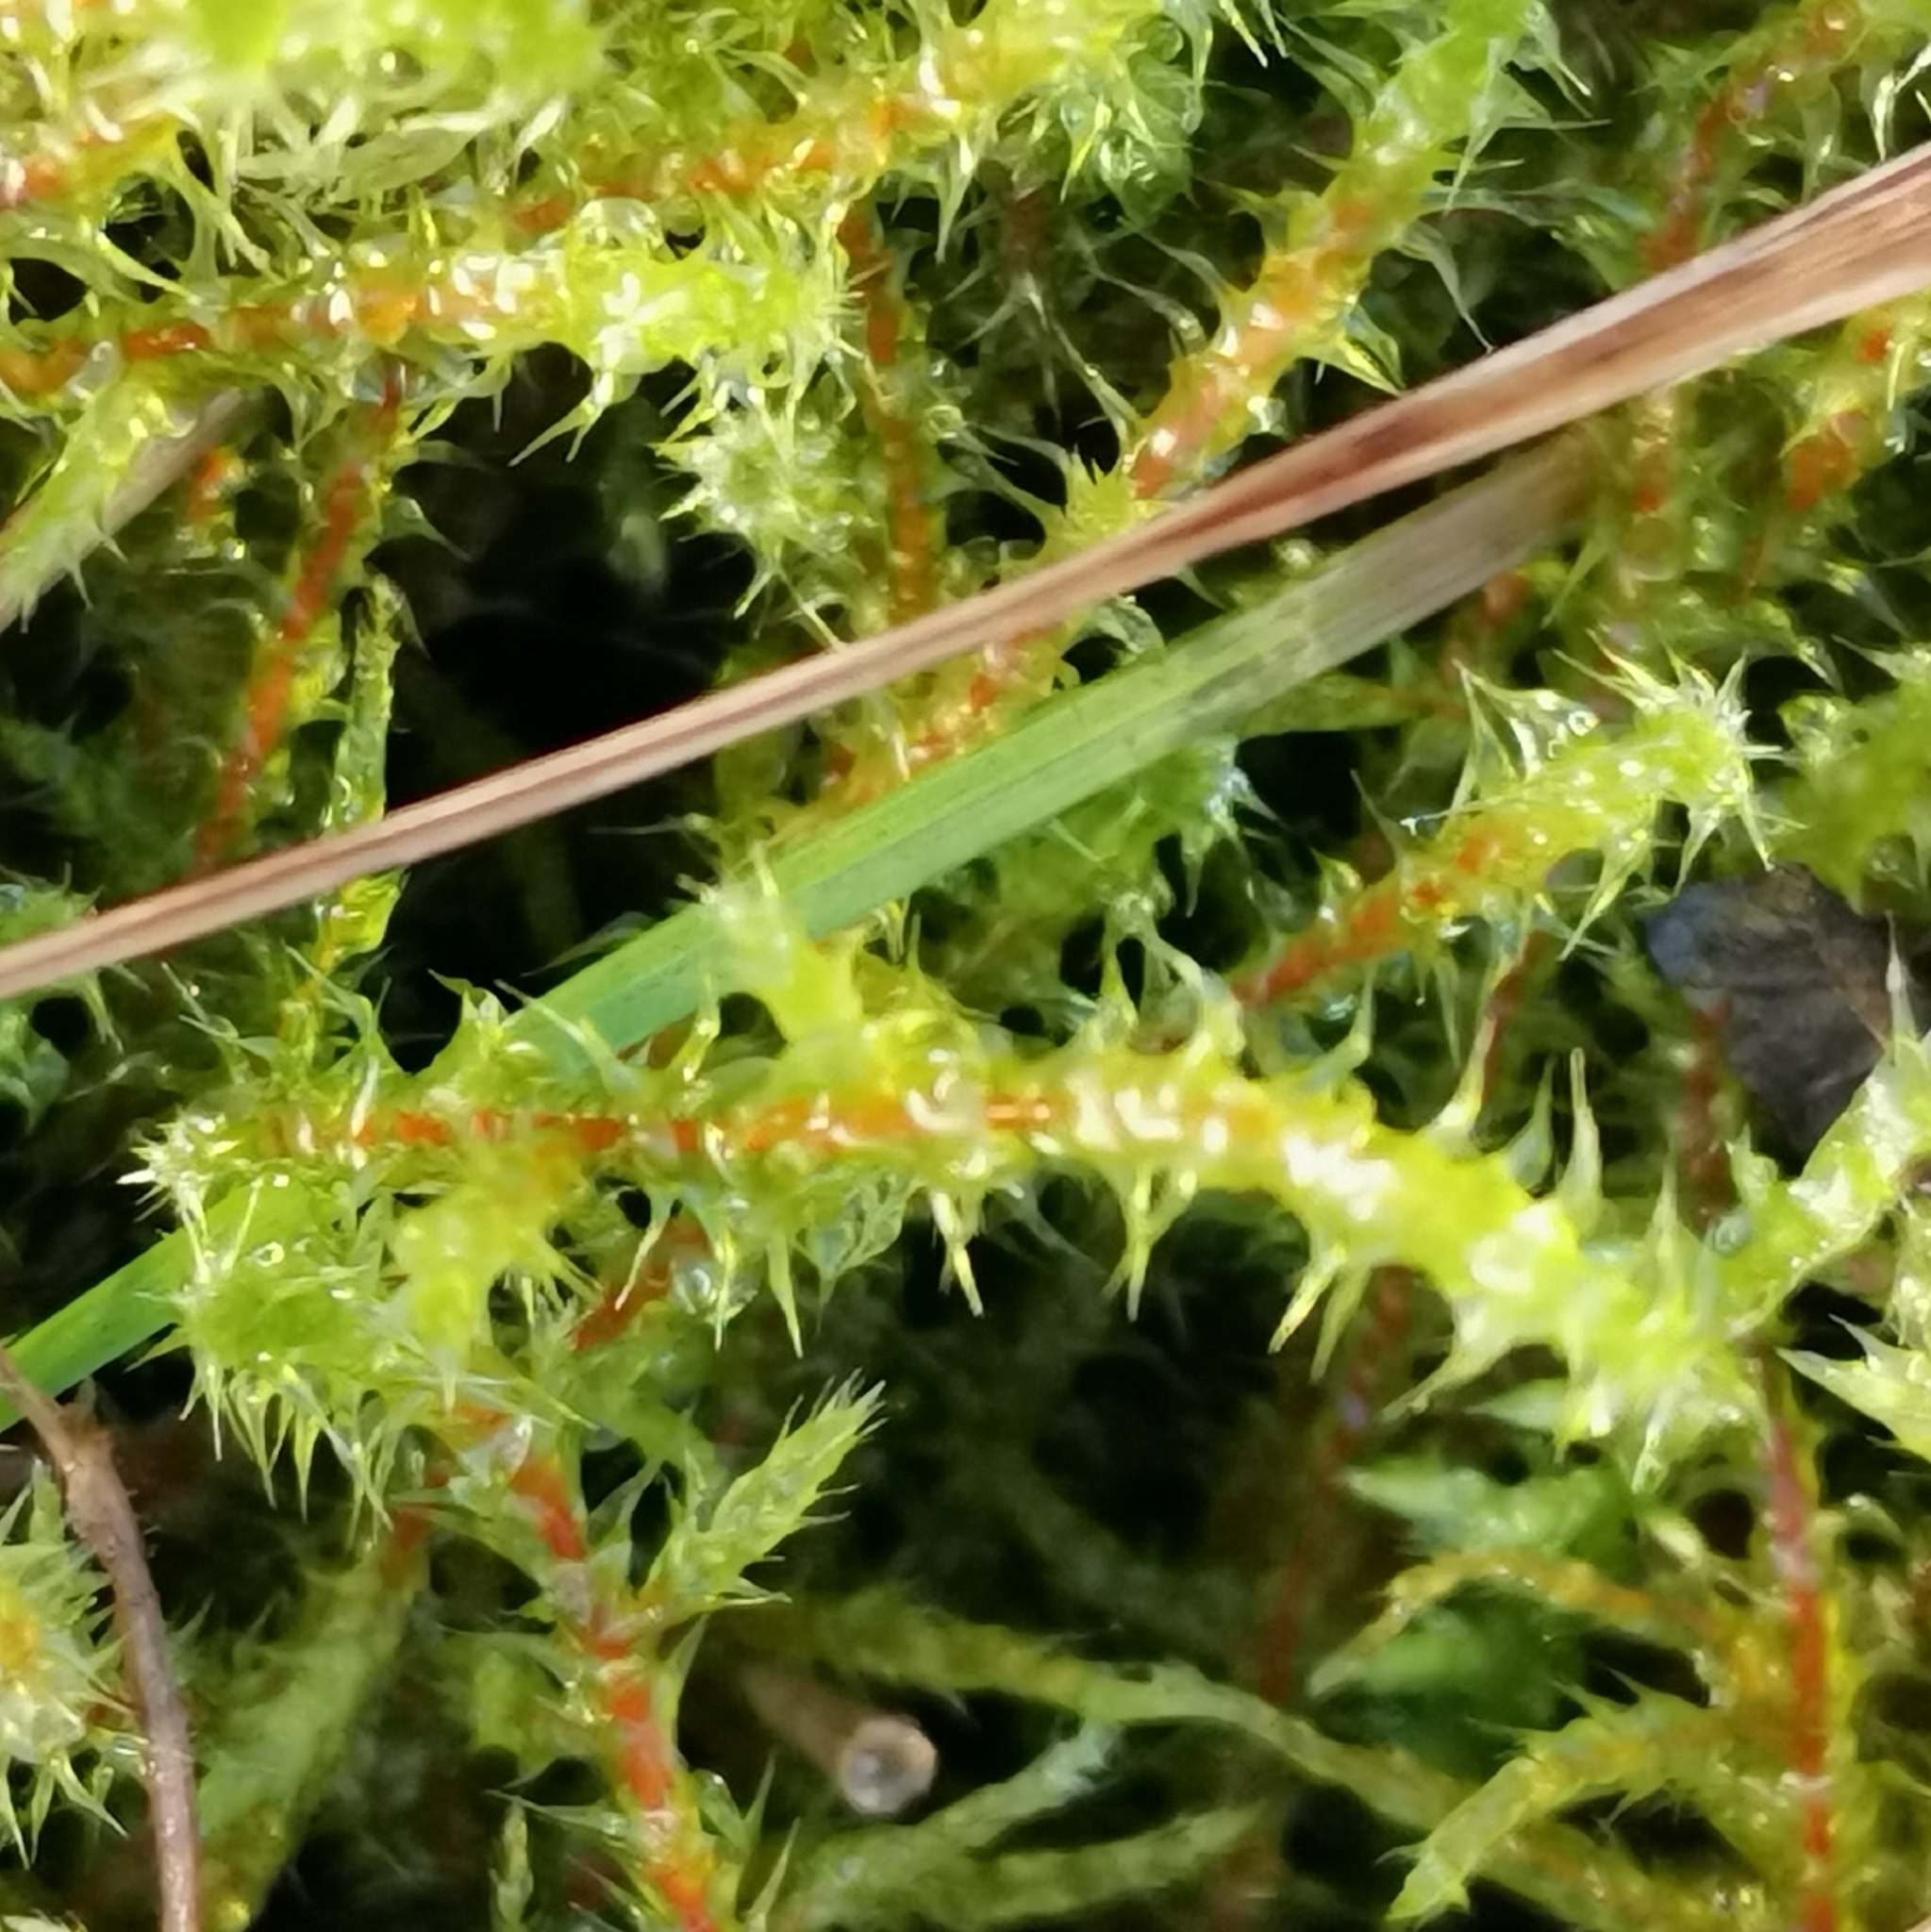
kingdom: Plantae
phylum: Bryophyta
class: Bryopsida
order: Hypnales
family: Hylocomiaceae
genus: Rhytidiadelphus
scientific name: Rhytidiadelphus squarrosus
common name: Springy turf-moss
